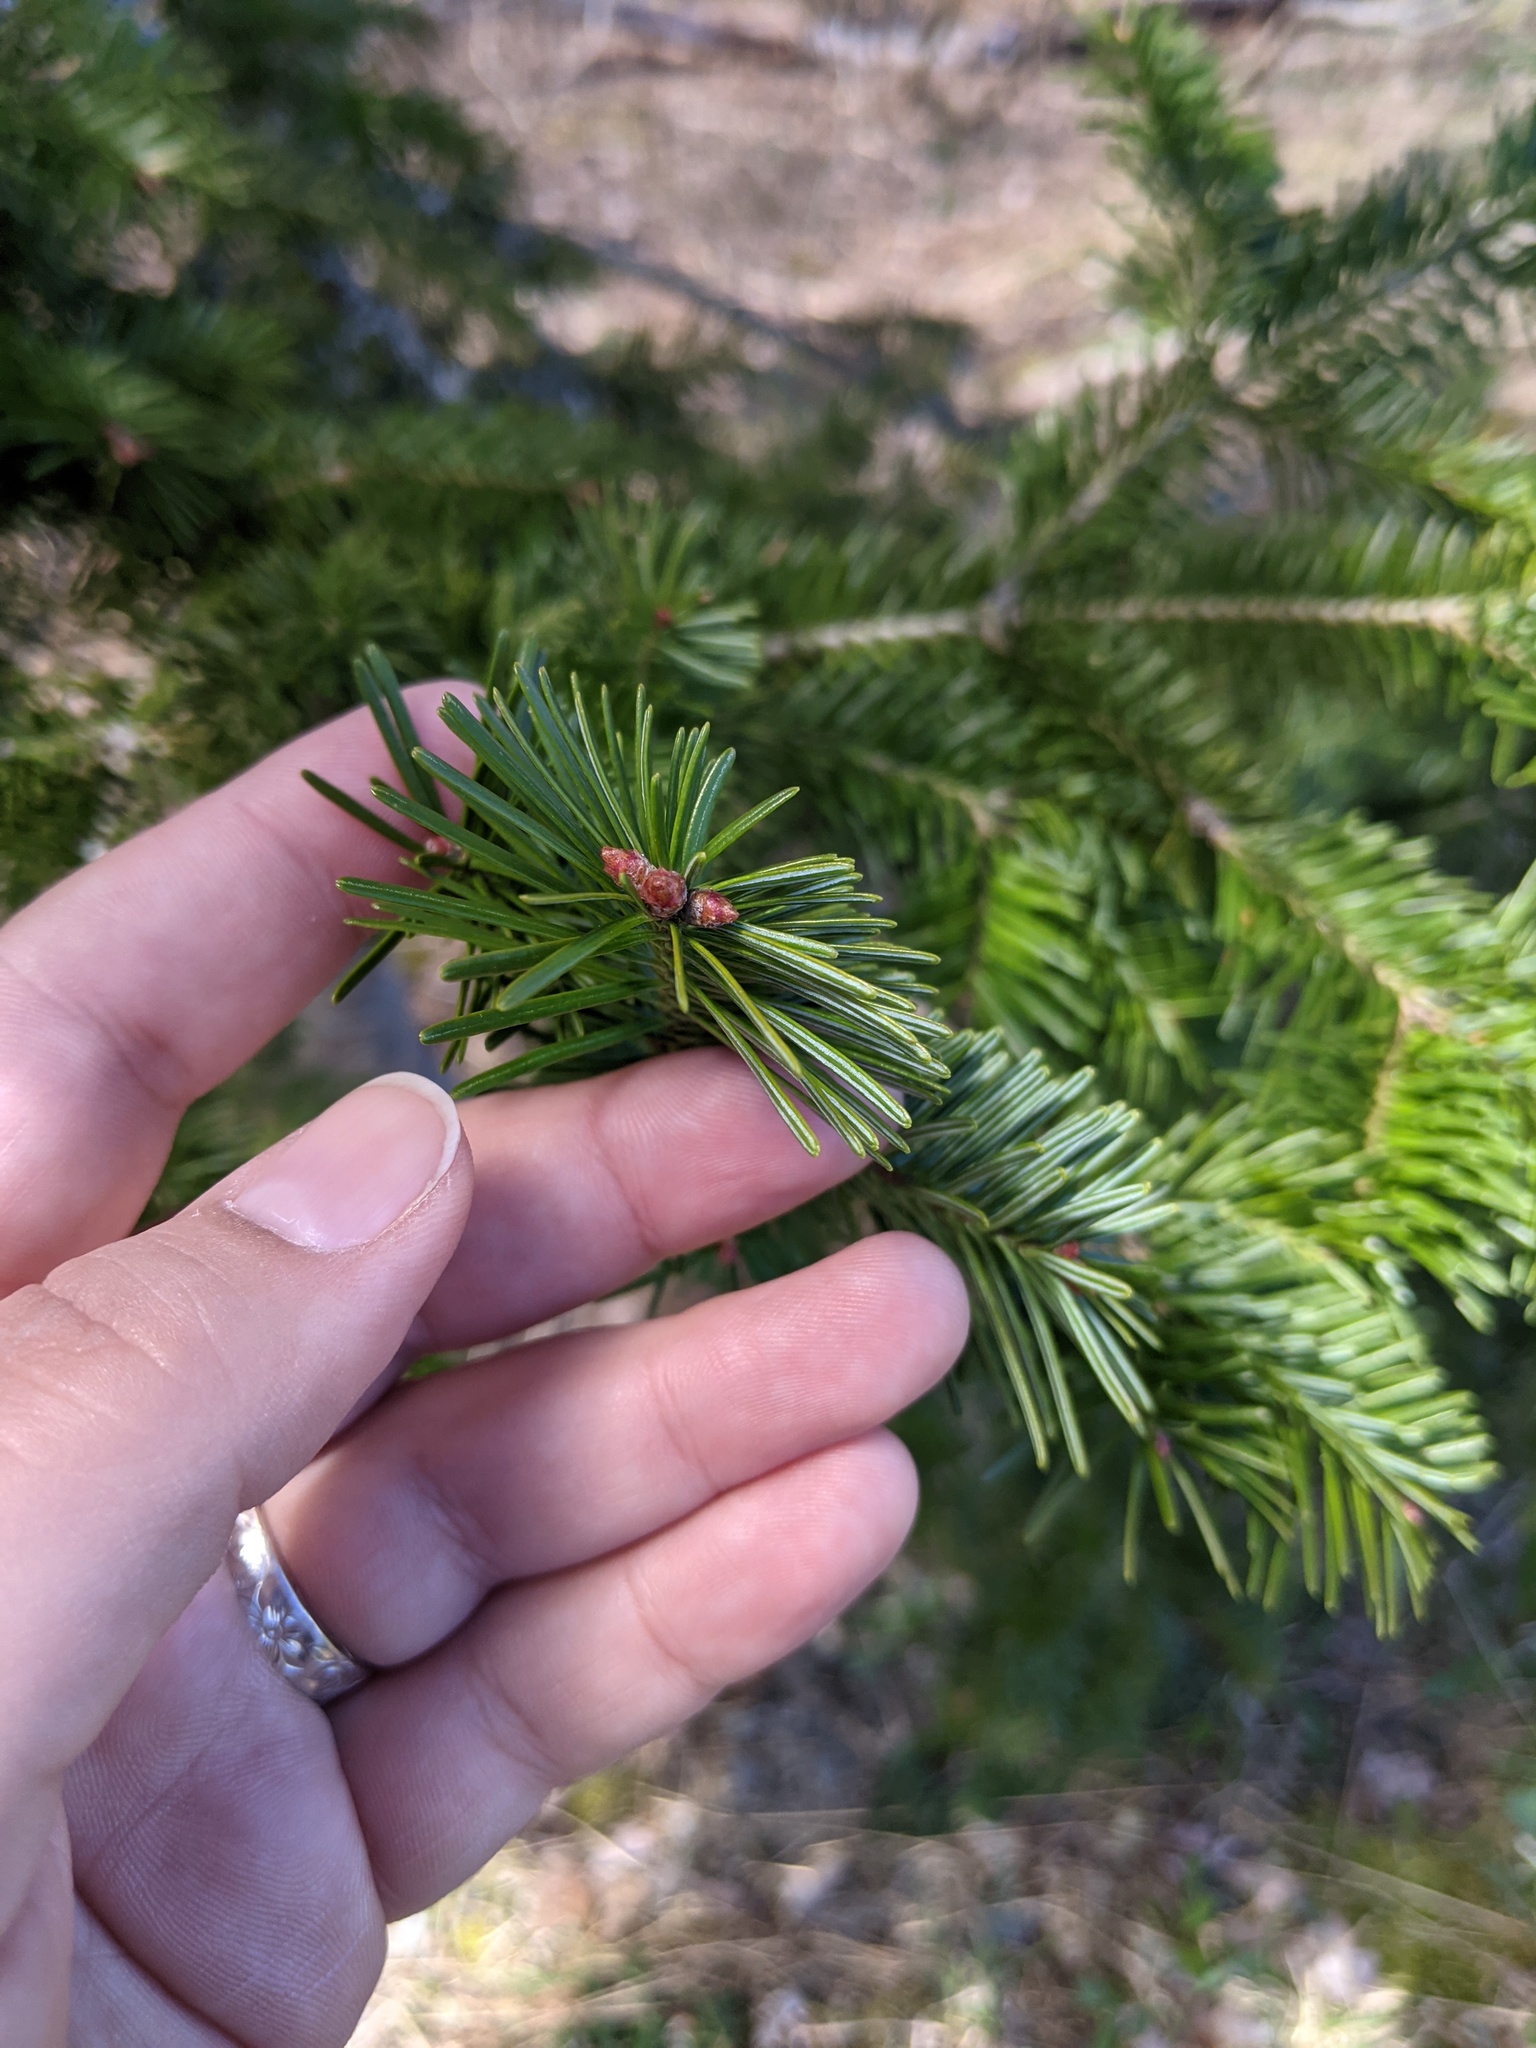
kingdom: Plantae
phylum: Tracheophyta
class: Pinopsida
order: Pinales
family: Pinaceae
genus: Abies
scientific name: Abies balsamea
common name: Balsam fir
